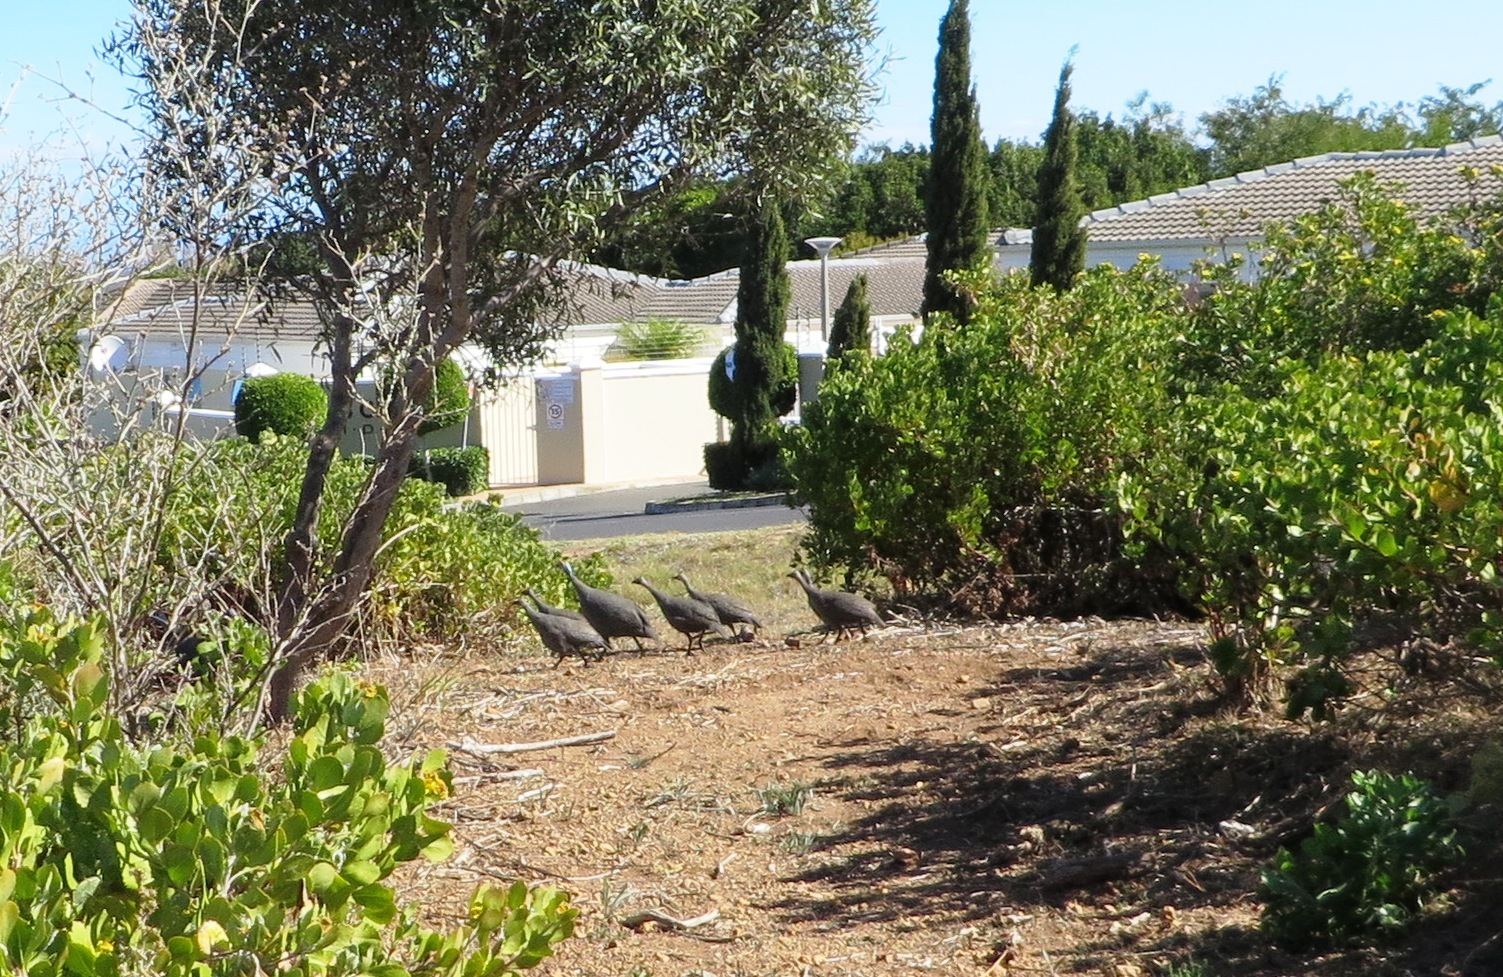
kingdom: Animalia
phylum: Chordata
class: Aves
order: Galliformes
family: Numididae
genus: Numida
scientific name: Numida meleagris
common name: Helmeted guineafowl
